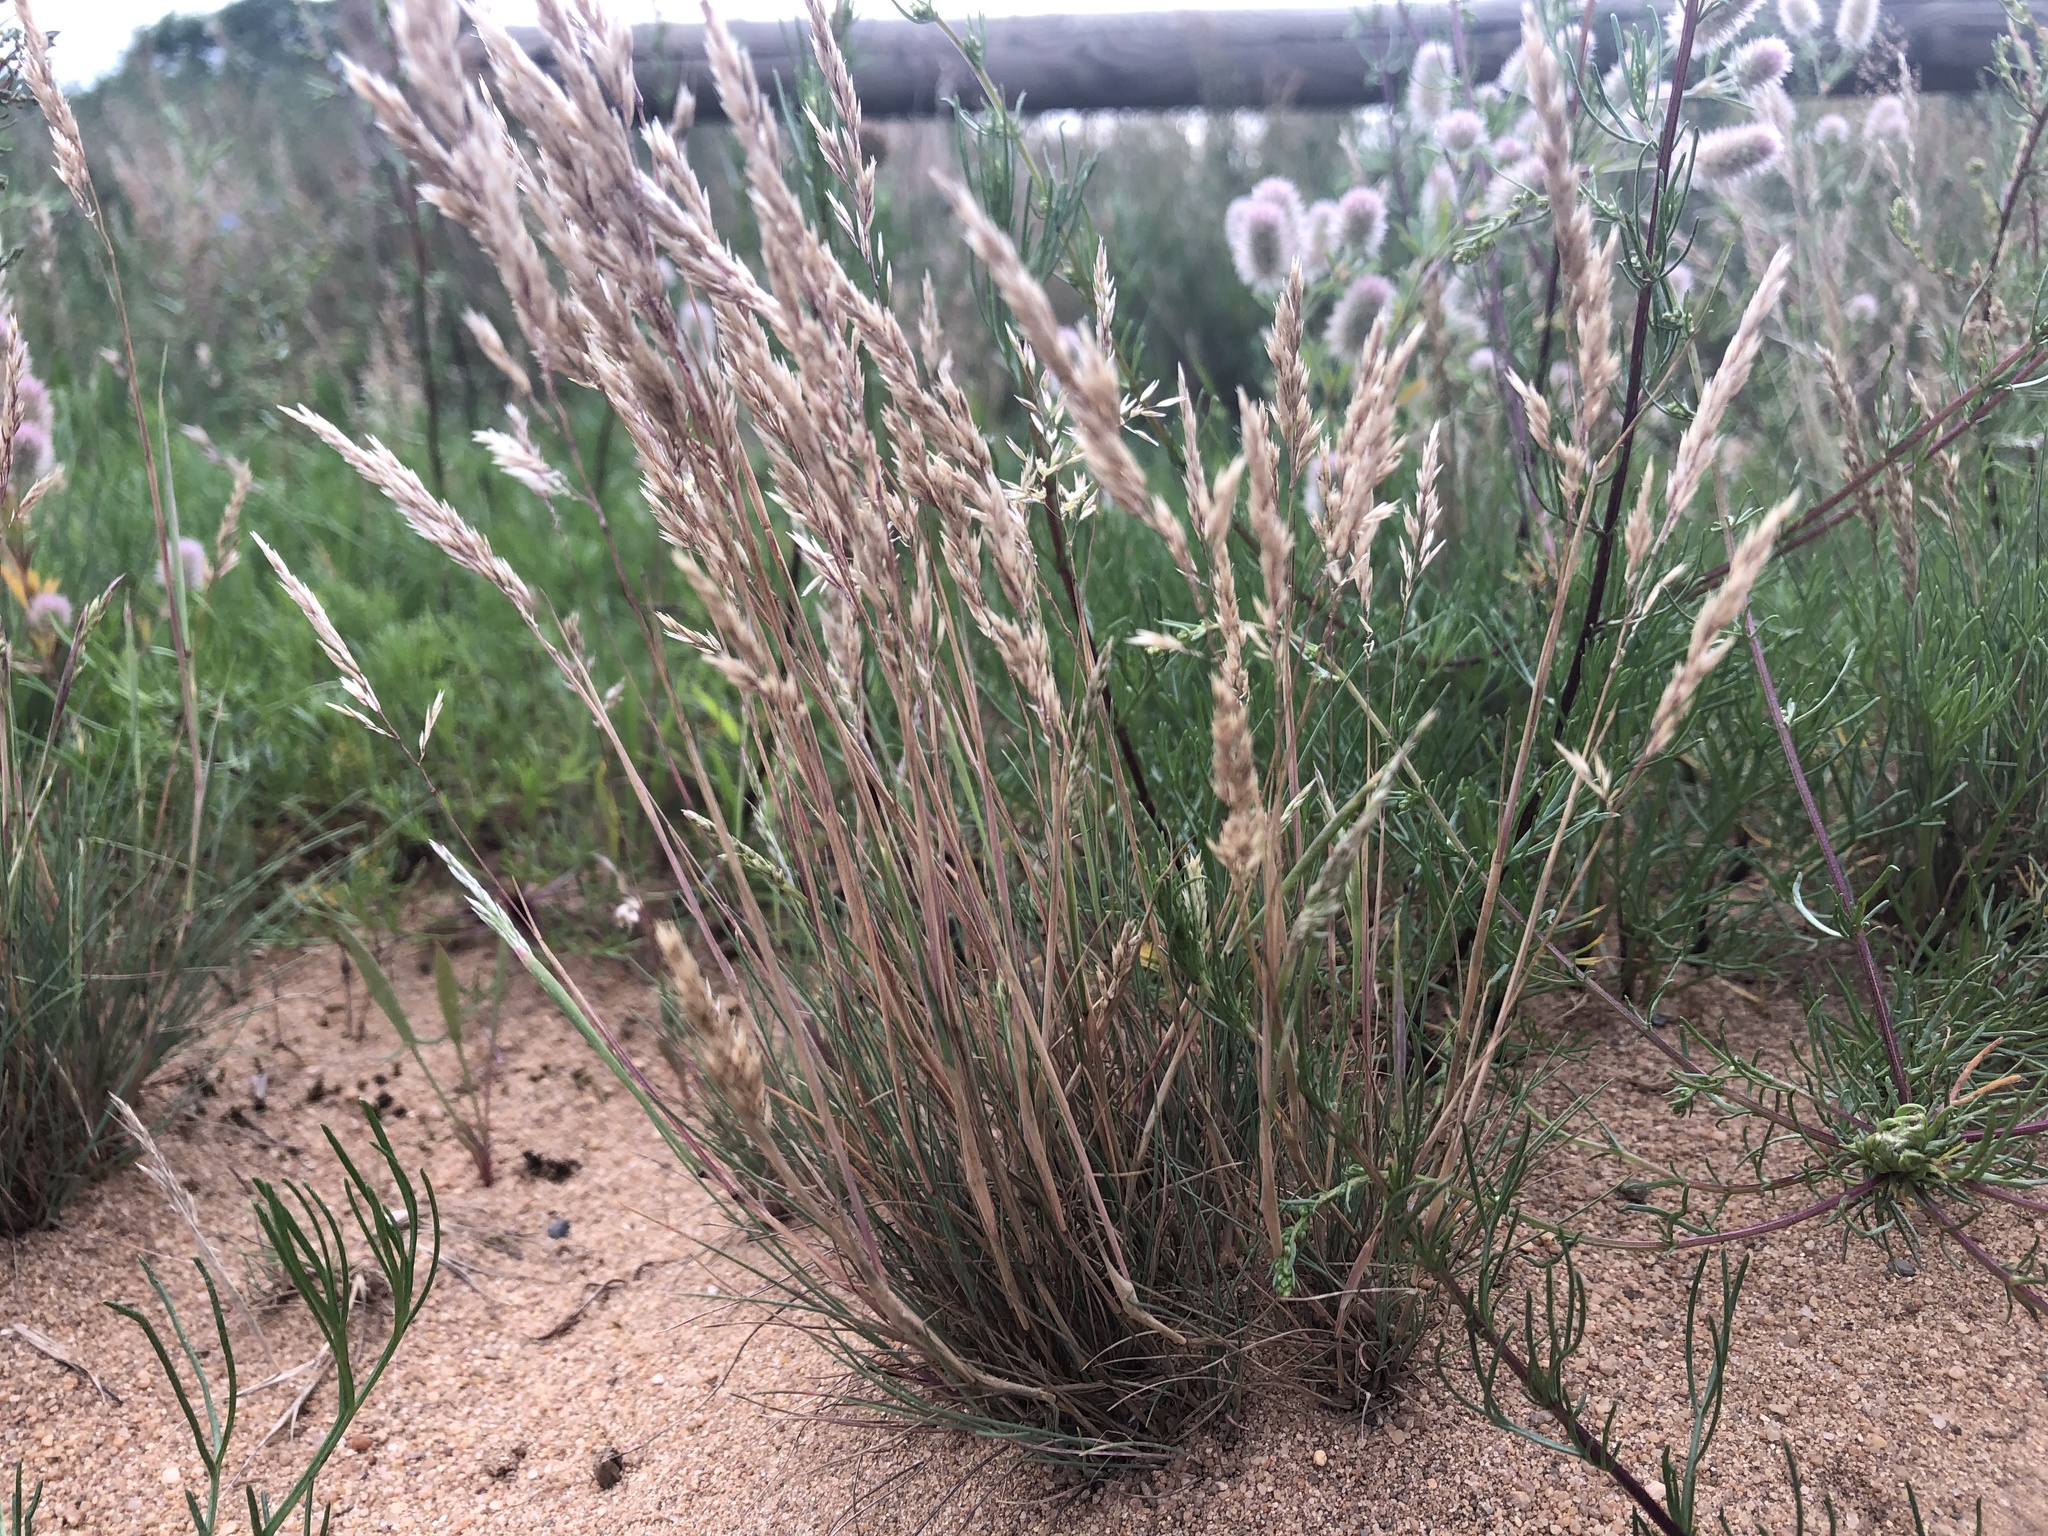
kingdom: Plantae
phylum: Tracheophyta
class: Liliopsida
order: Poales
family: Poaceae
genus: Corynephorus
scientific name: Corynephorus canescens
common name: Grey hair-grass
